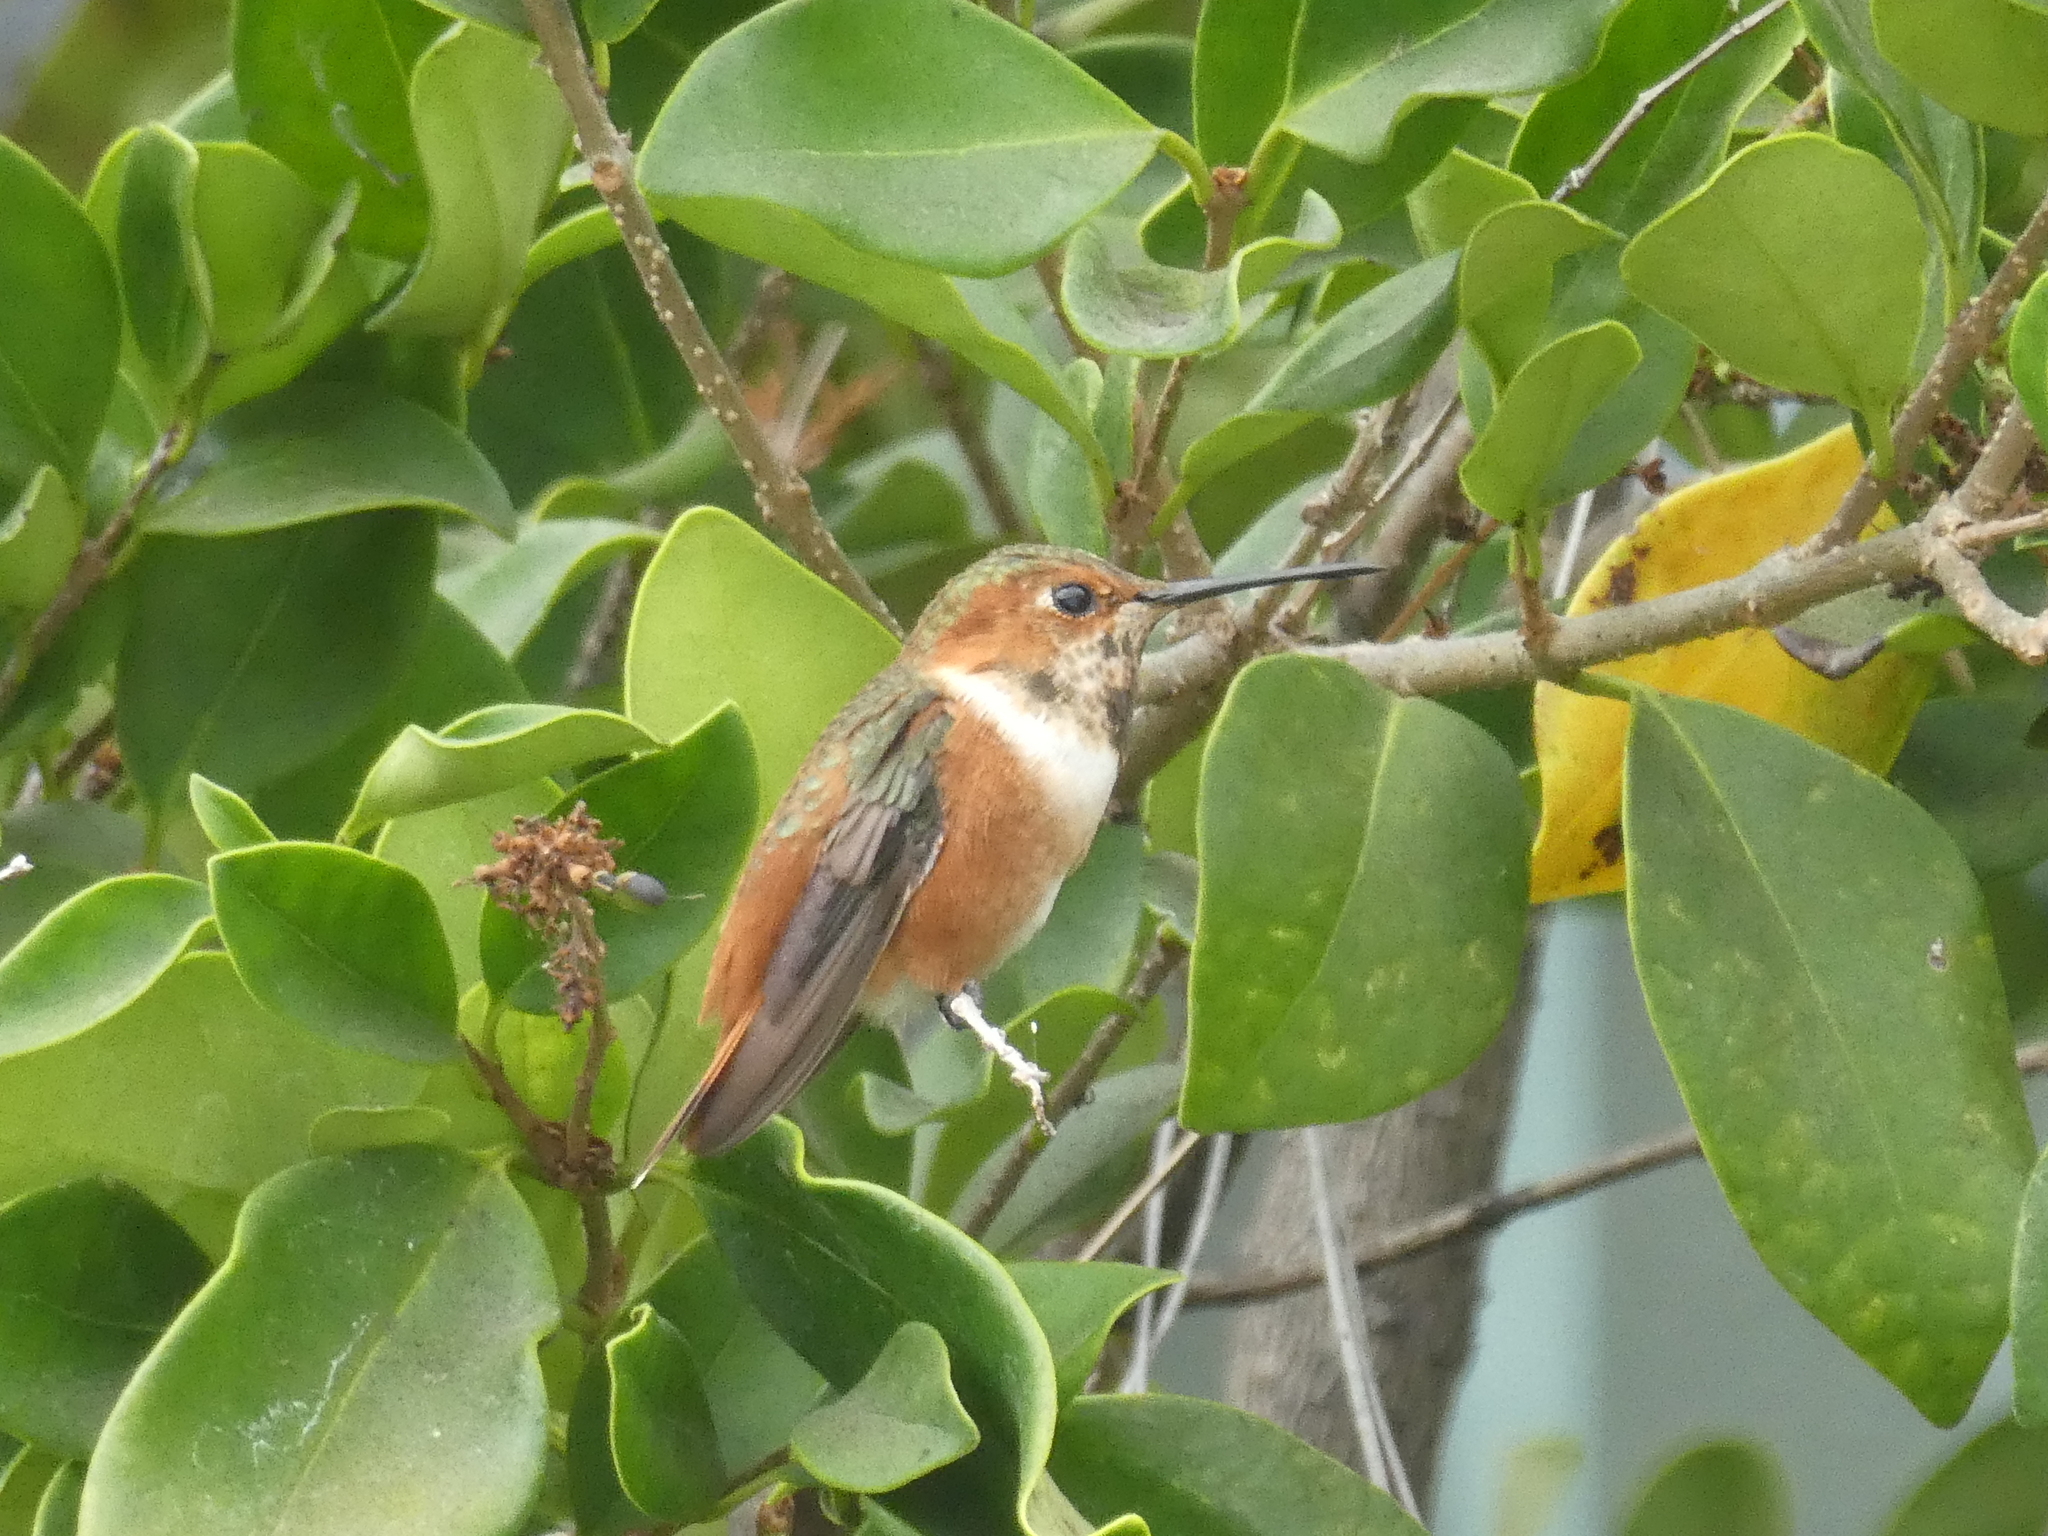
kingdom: Animalia
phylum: Chordata
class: Aves
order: Apodiformes
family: Trochilidae
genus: Selasphorus
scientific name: Selasphorus sasin
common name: Allen's hummingbird
